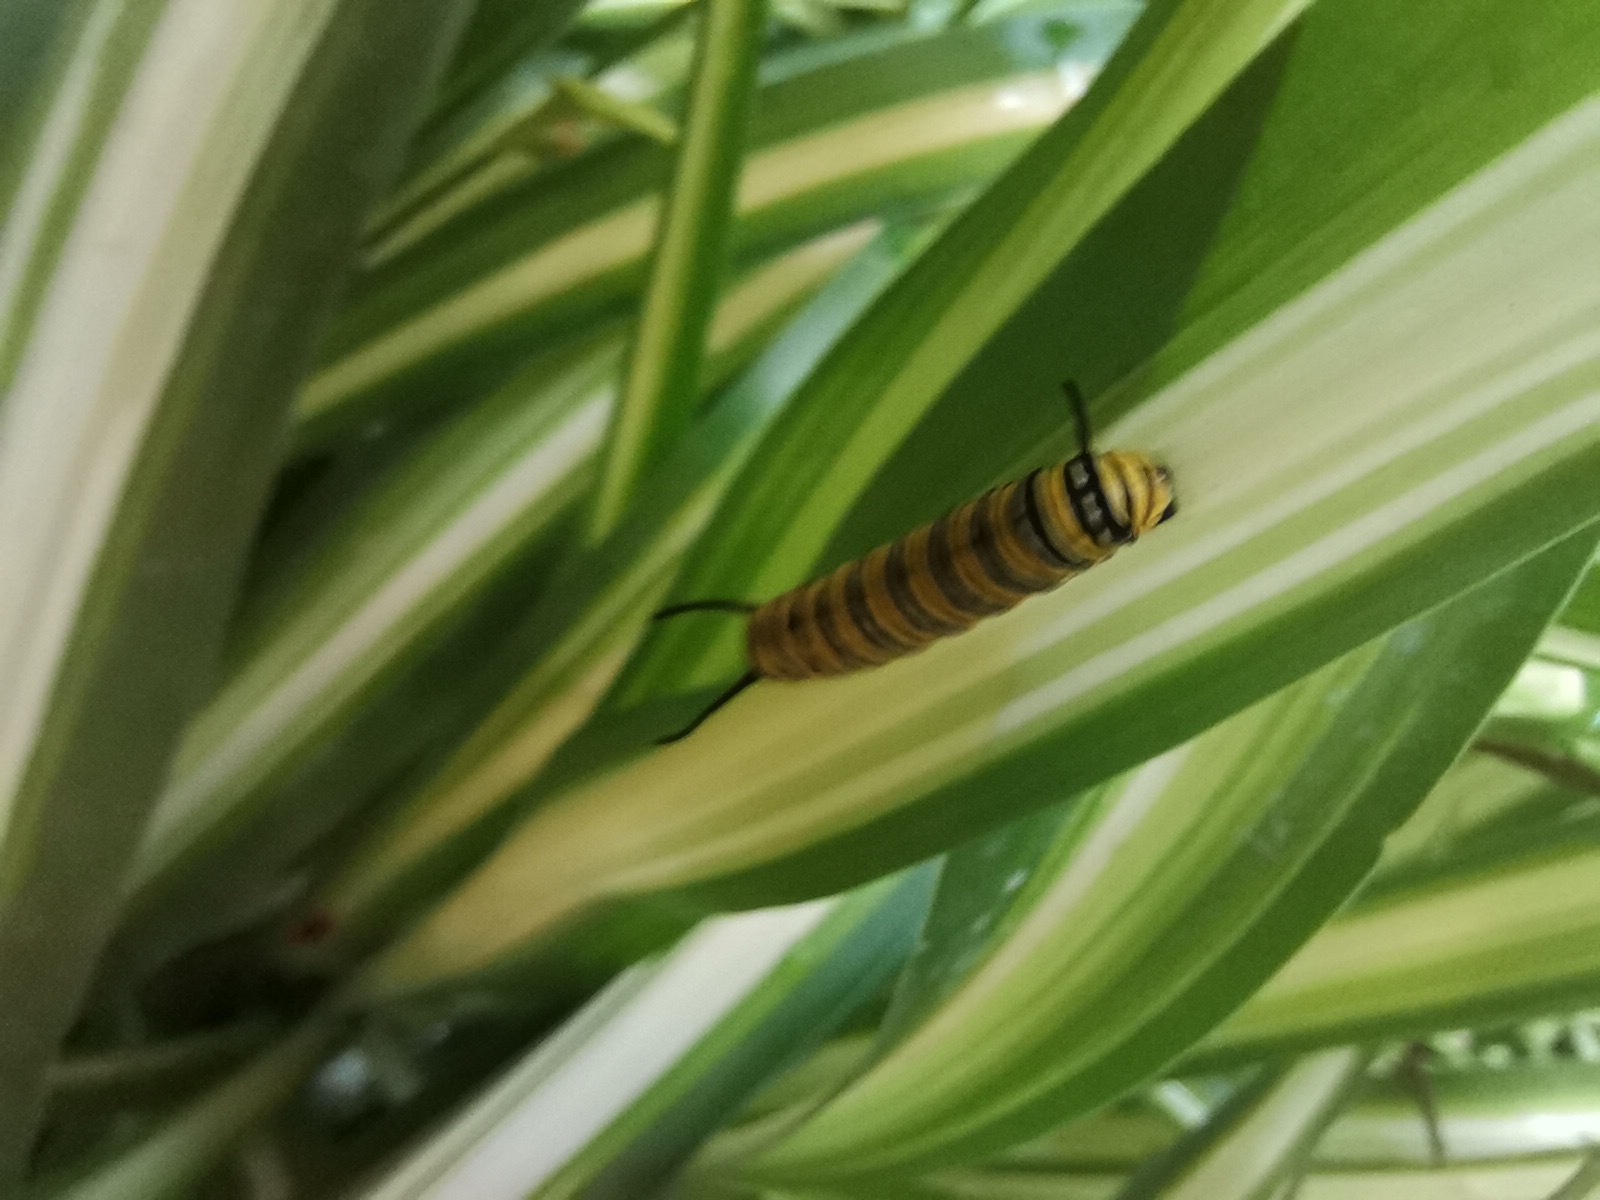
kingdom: Animalia
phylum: Arthropoda
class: Insecta
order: Lepidoptera
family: Nymphalidae
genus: Danaus
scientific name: Danaus plexippus
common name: Monarch
